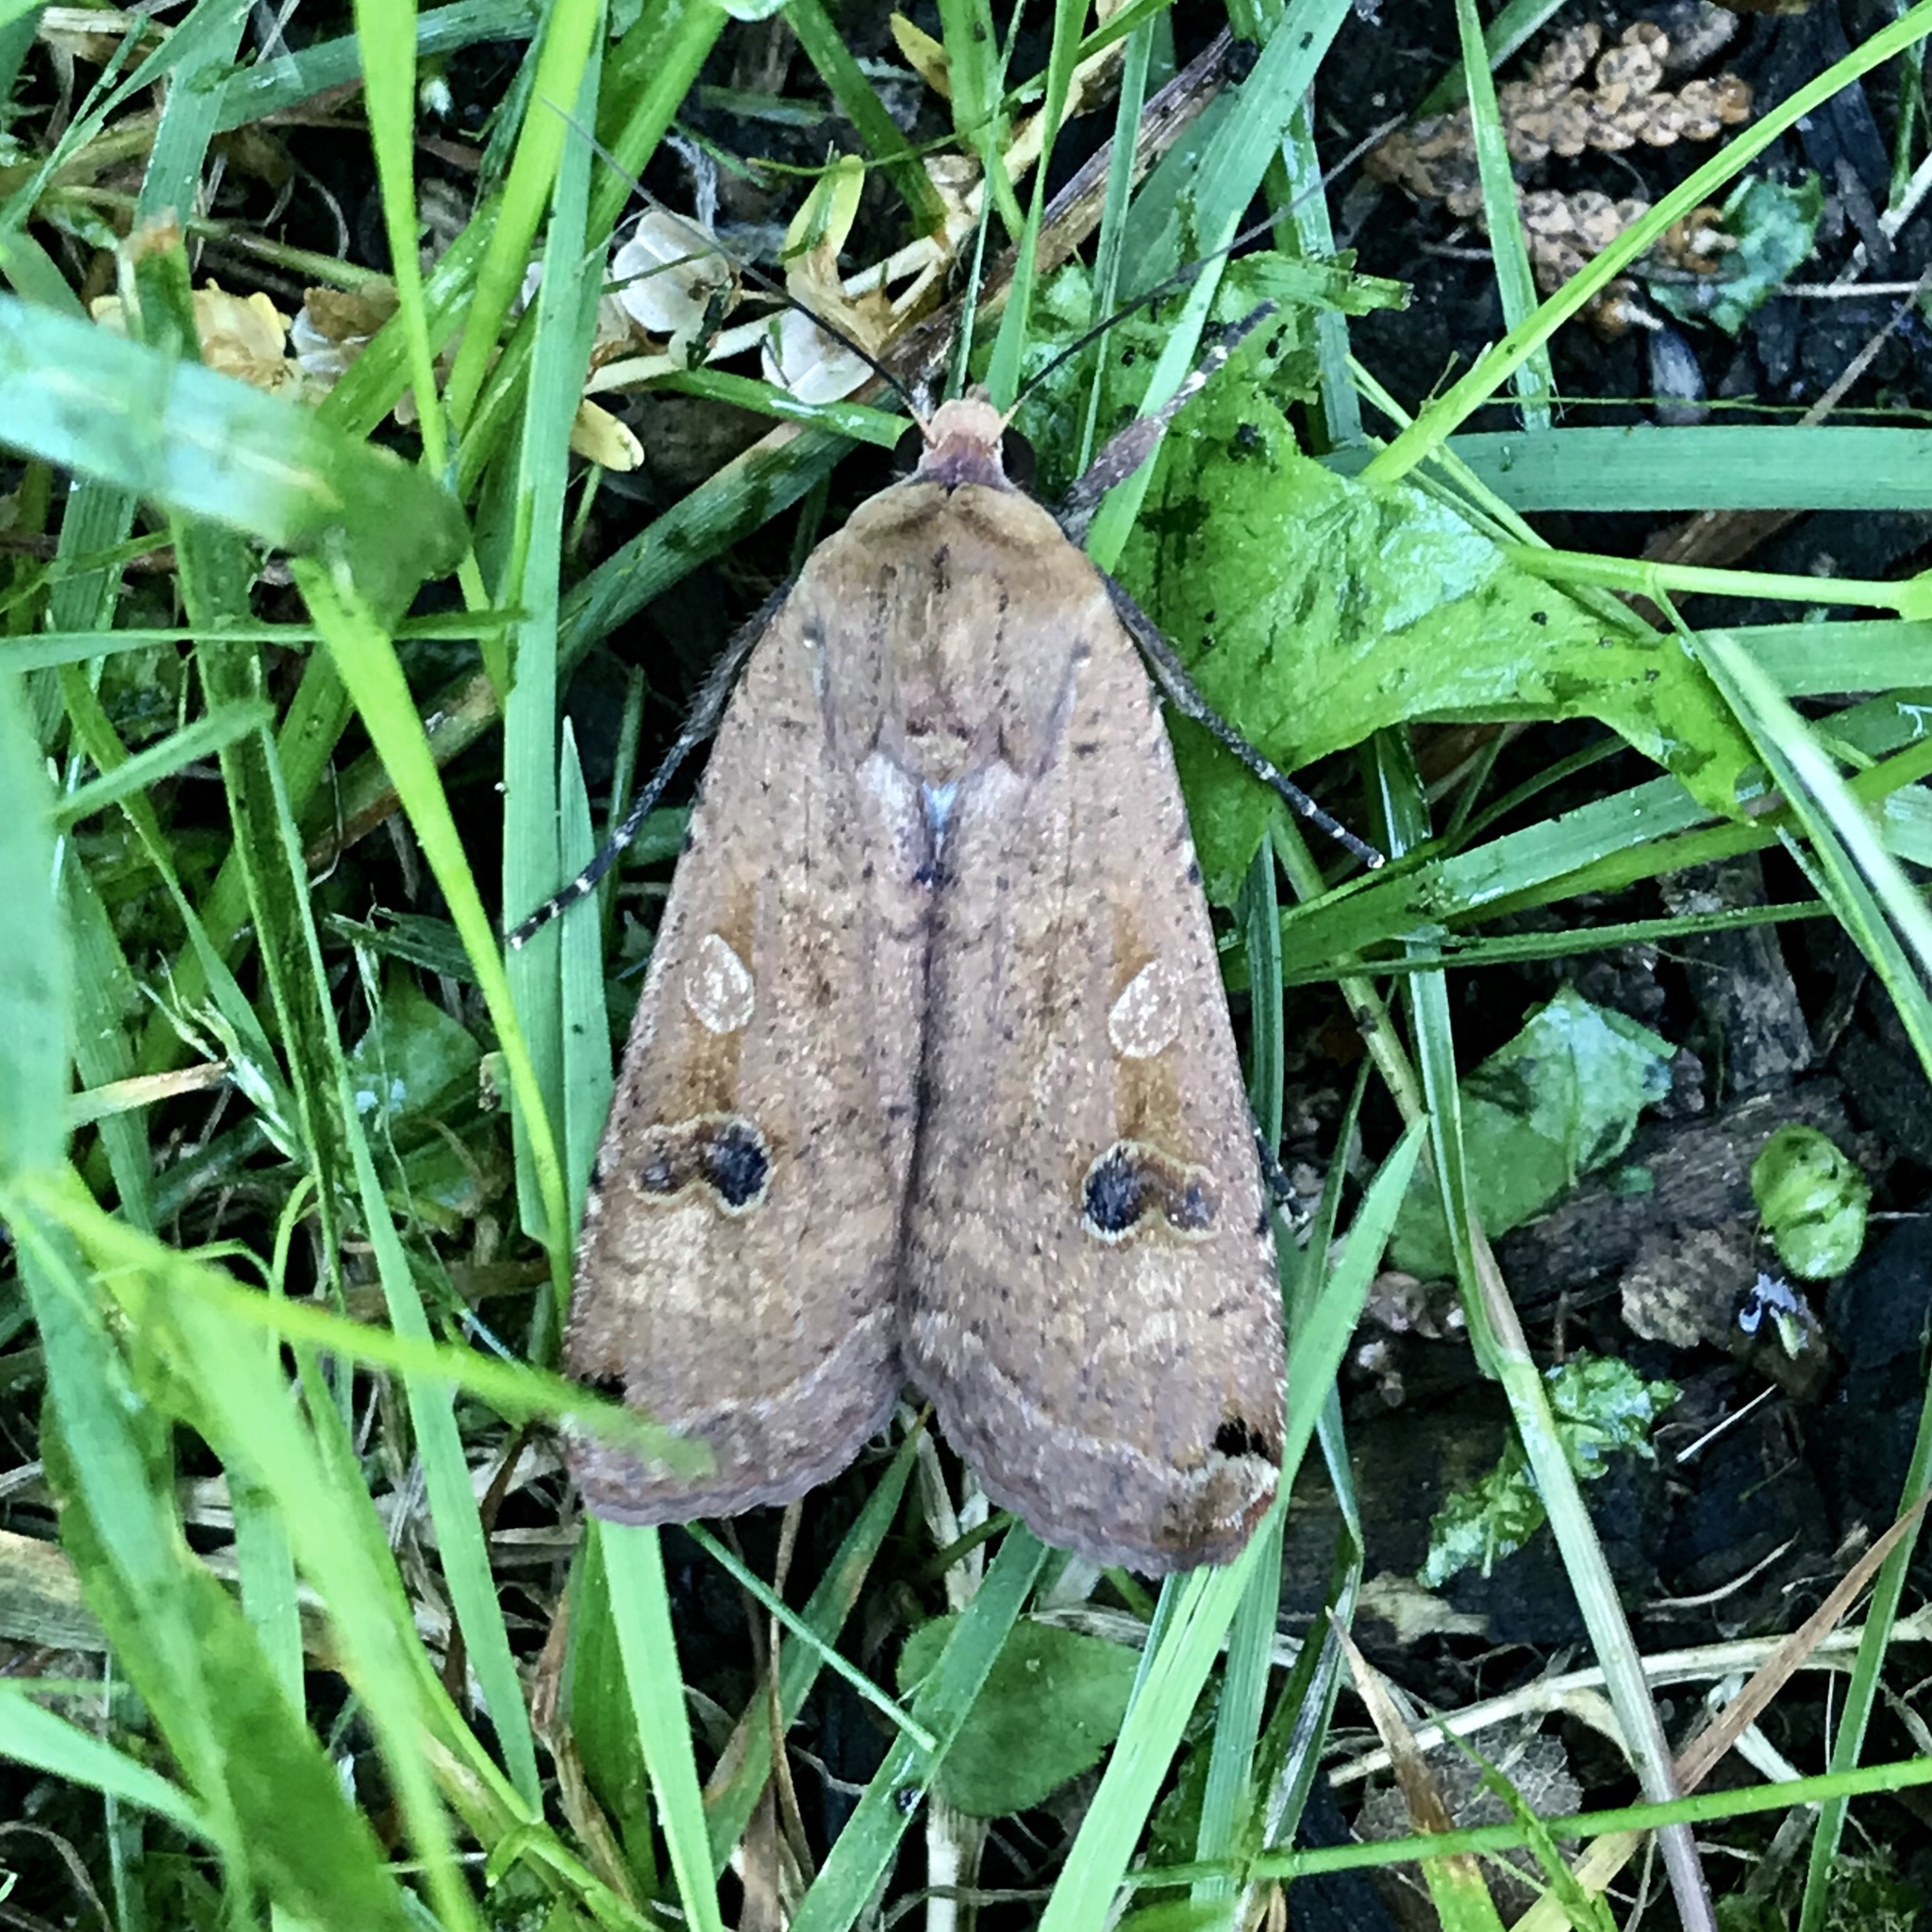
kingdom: Animalia
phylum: Arthropoda
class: Insecta
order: Lepidoptera
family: Noctuidae
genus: Noctua
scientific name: Noctua pronuba
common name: Large yellow underwing
